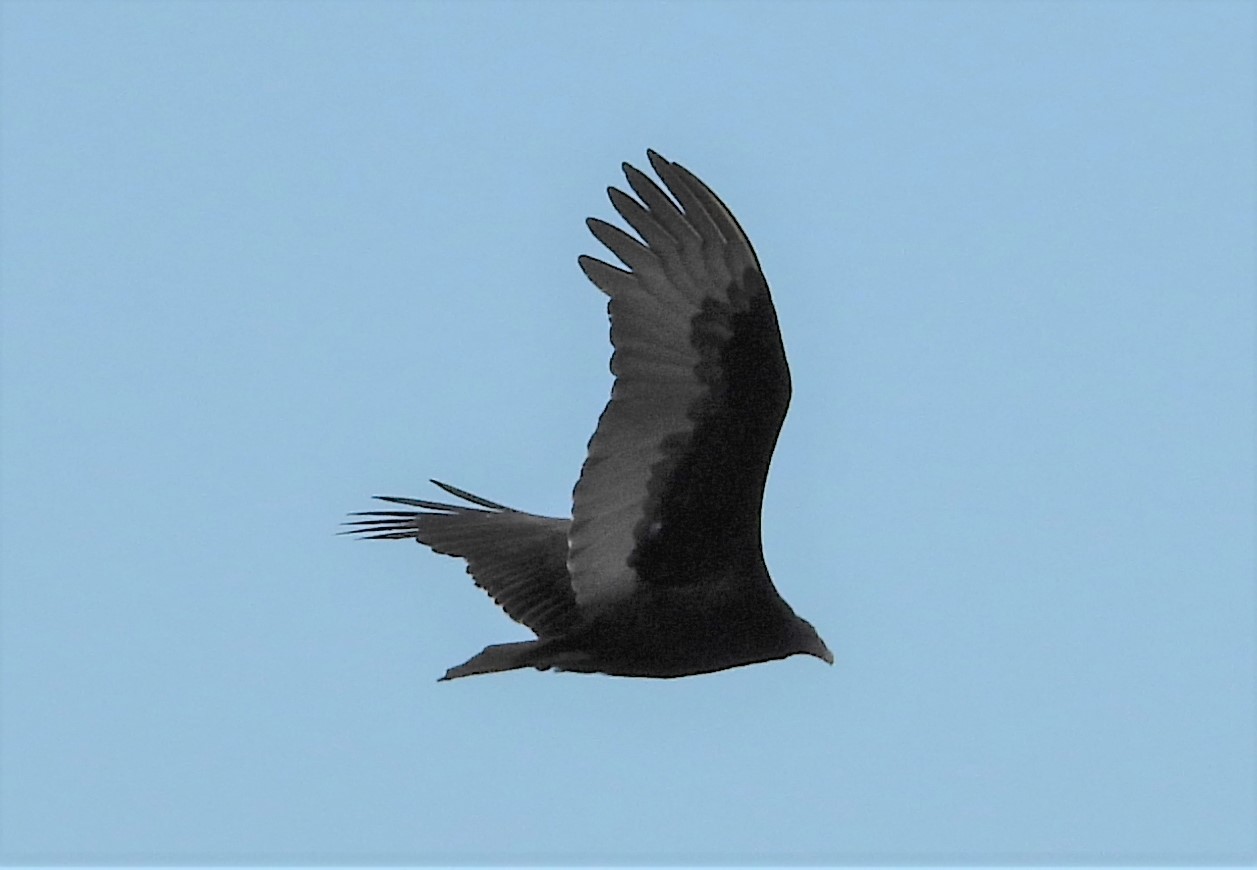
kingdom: Animalia
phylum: Chordata
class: Aves
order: Accipitriformes
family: Cathartidae
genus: Cathartes
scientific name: Cathartes aura
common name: Turkey vulture
